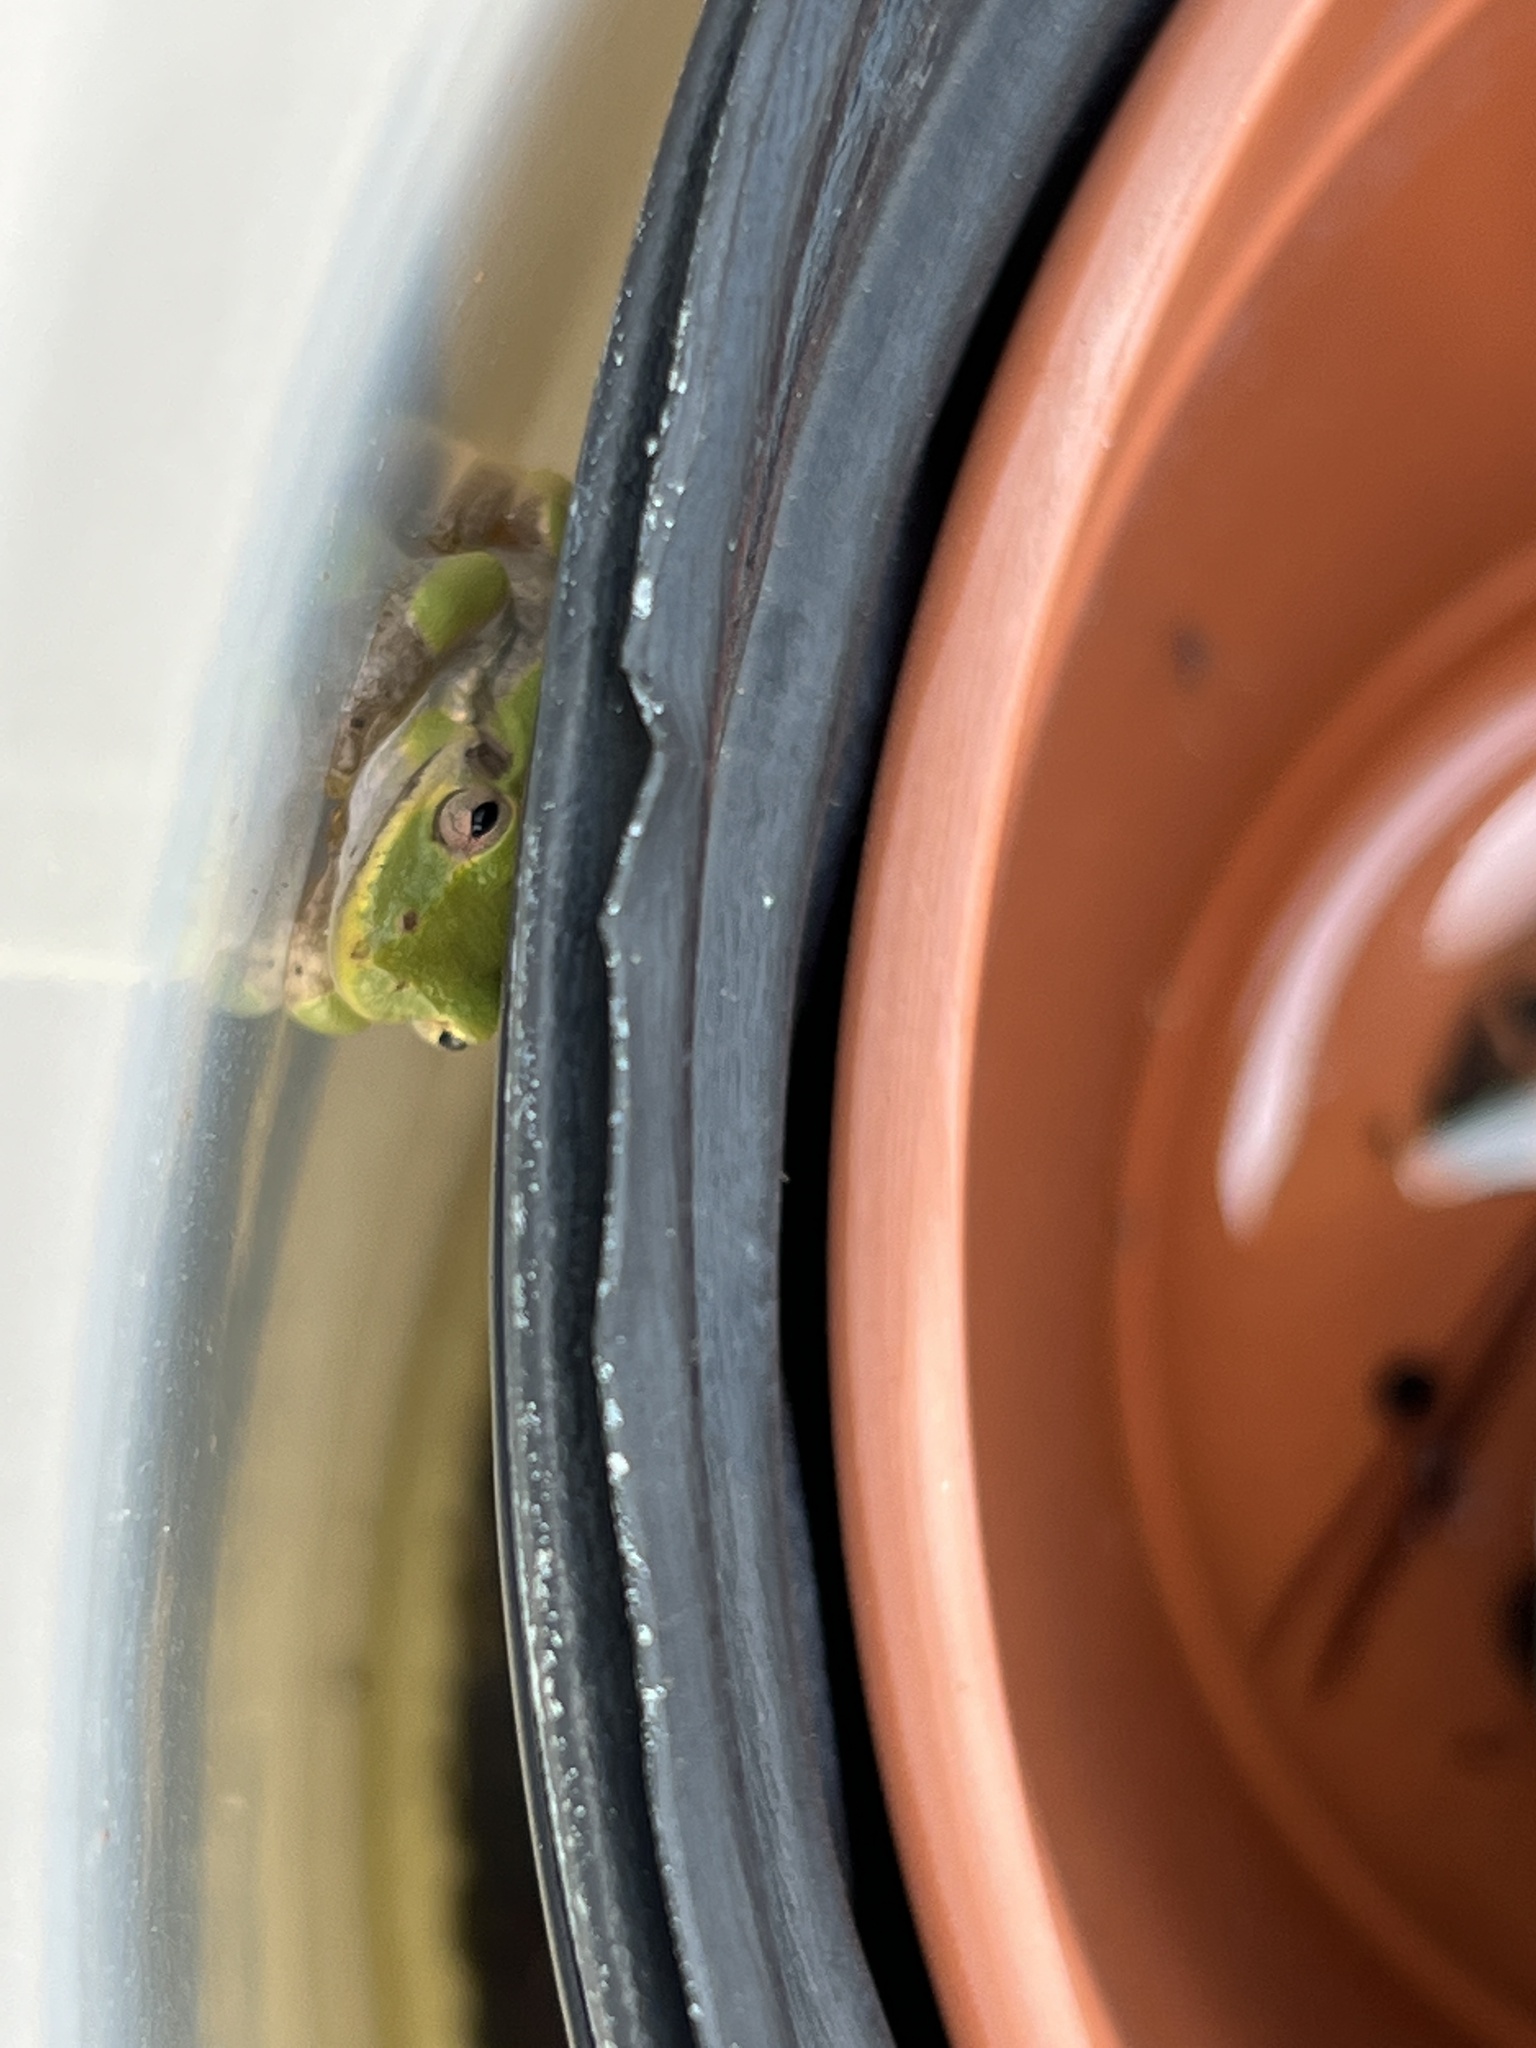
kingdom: Animalia
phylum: Chordata
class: Amphibia
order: Anura
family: Hylidae
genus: Dryophytes
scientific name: Dryophytes squirellus
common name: Squirrel treefrog
